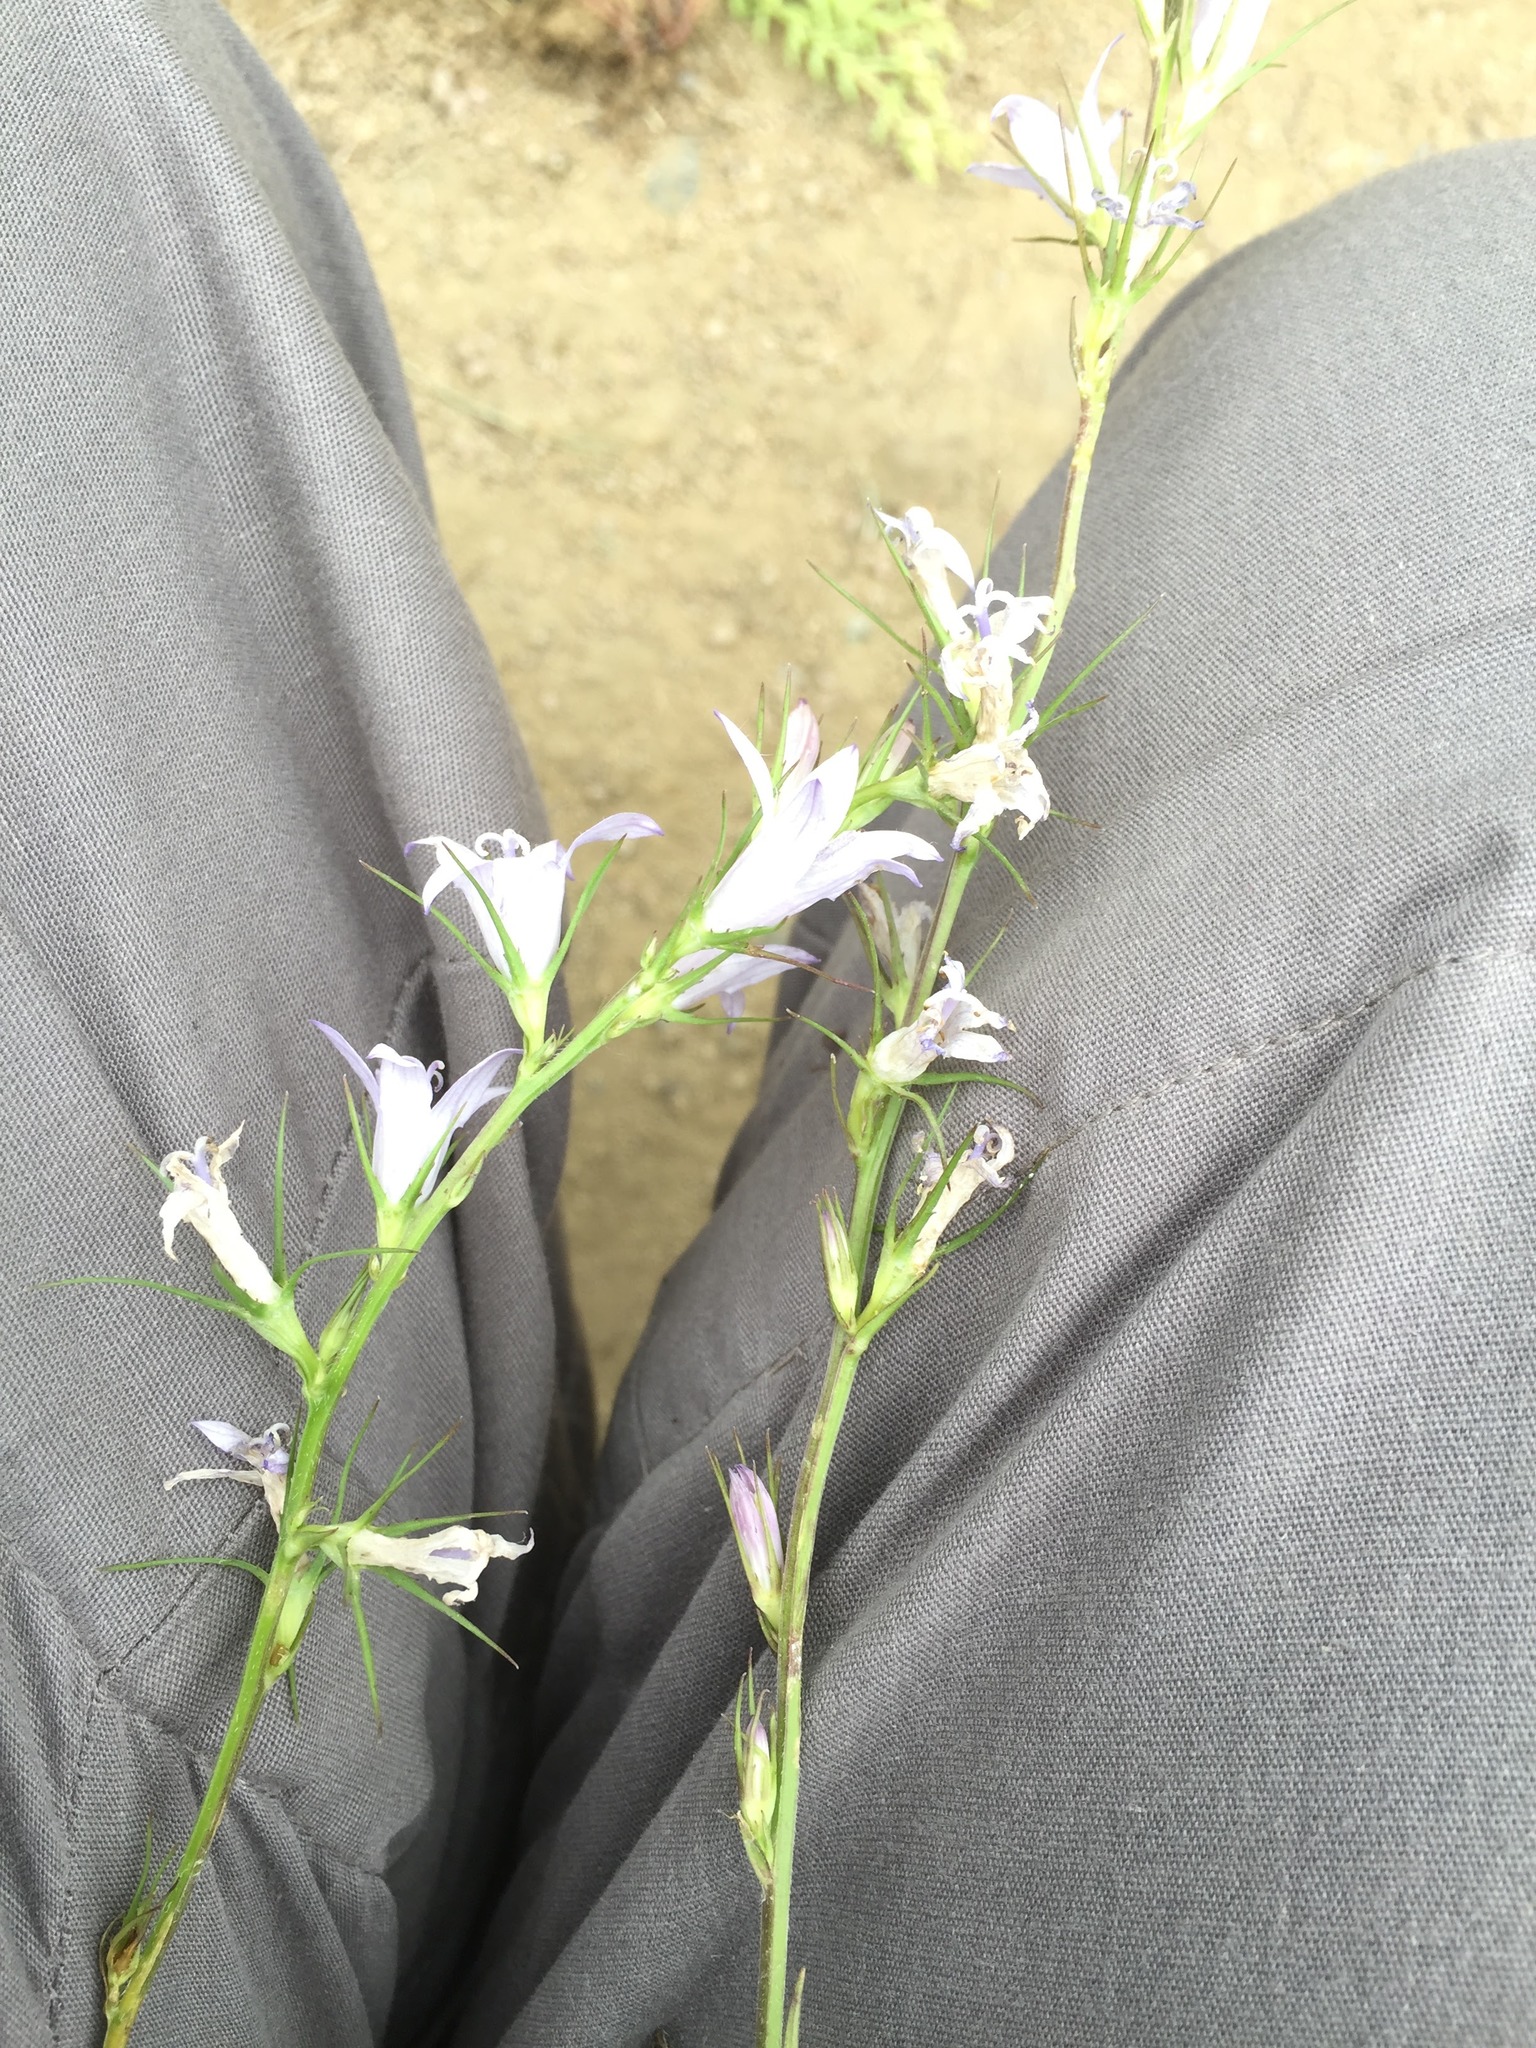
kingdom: Plantae
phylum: Tracheophyta
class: Magnoliopsida
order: Asterales
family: Campanulaceae
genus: Campanula
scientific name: Campanula rapunculus
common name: Rampion bellflower
